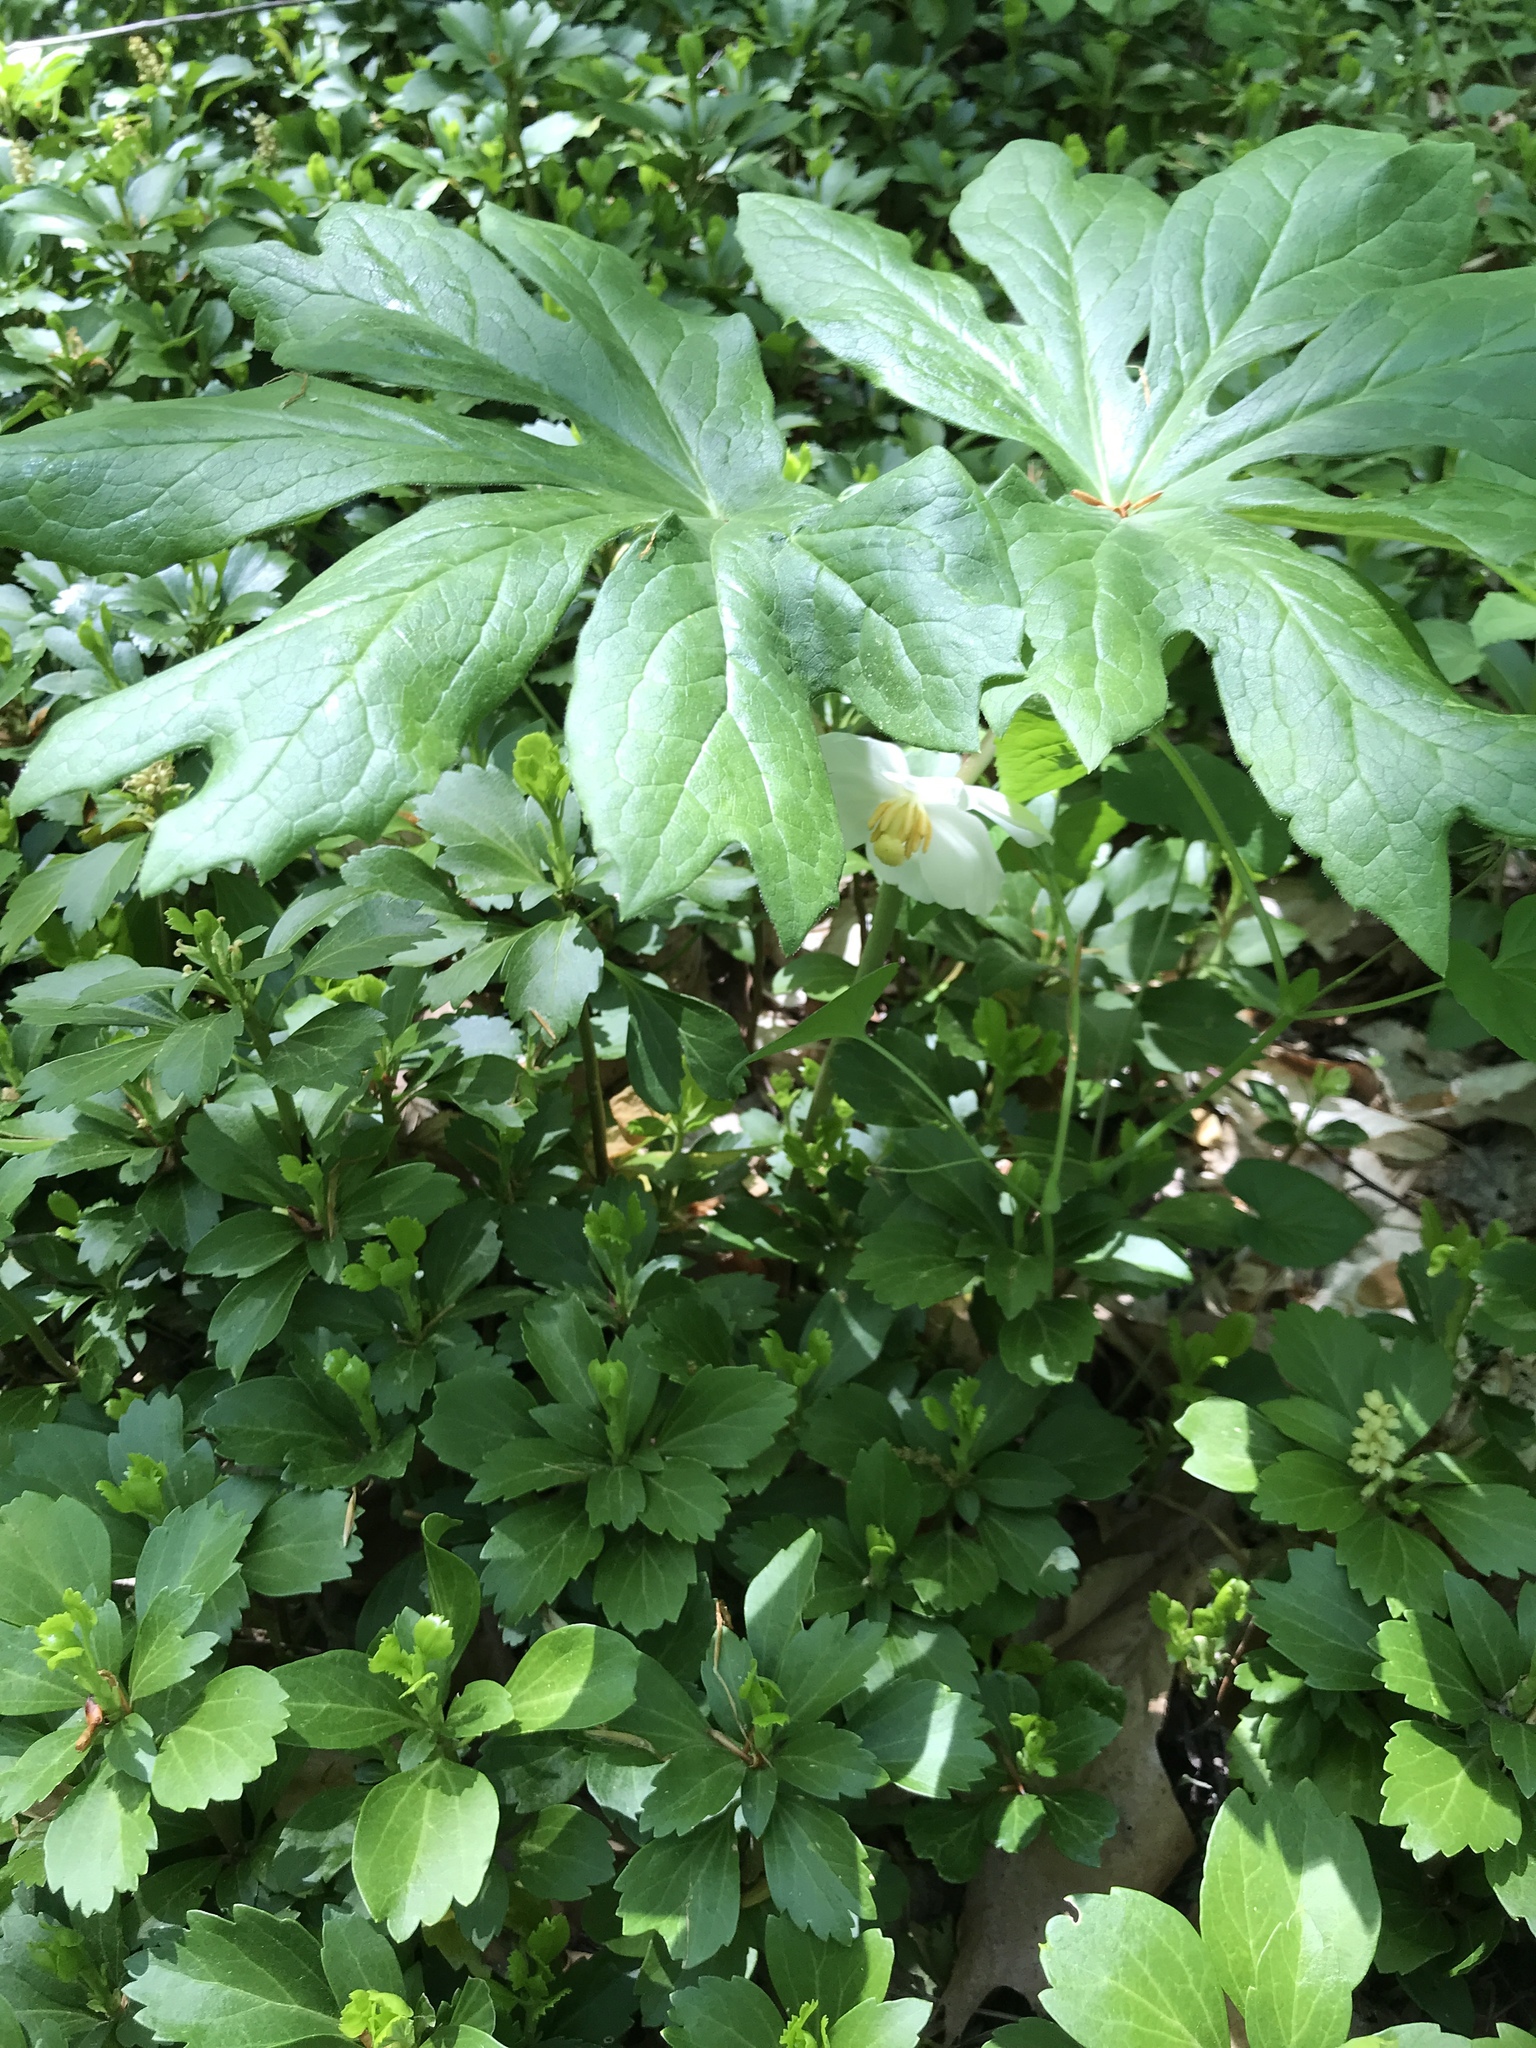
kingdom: Plantae
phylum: Tracheophyta
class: Magnoliopsida
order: Ranunculales
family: Berberidaceae
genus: Podophyllum
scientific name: Podophyllum peltatum
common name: Wild mandrake
